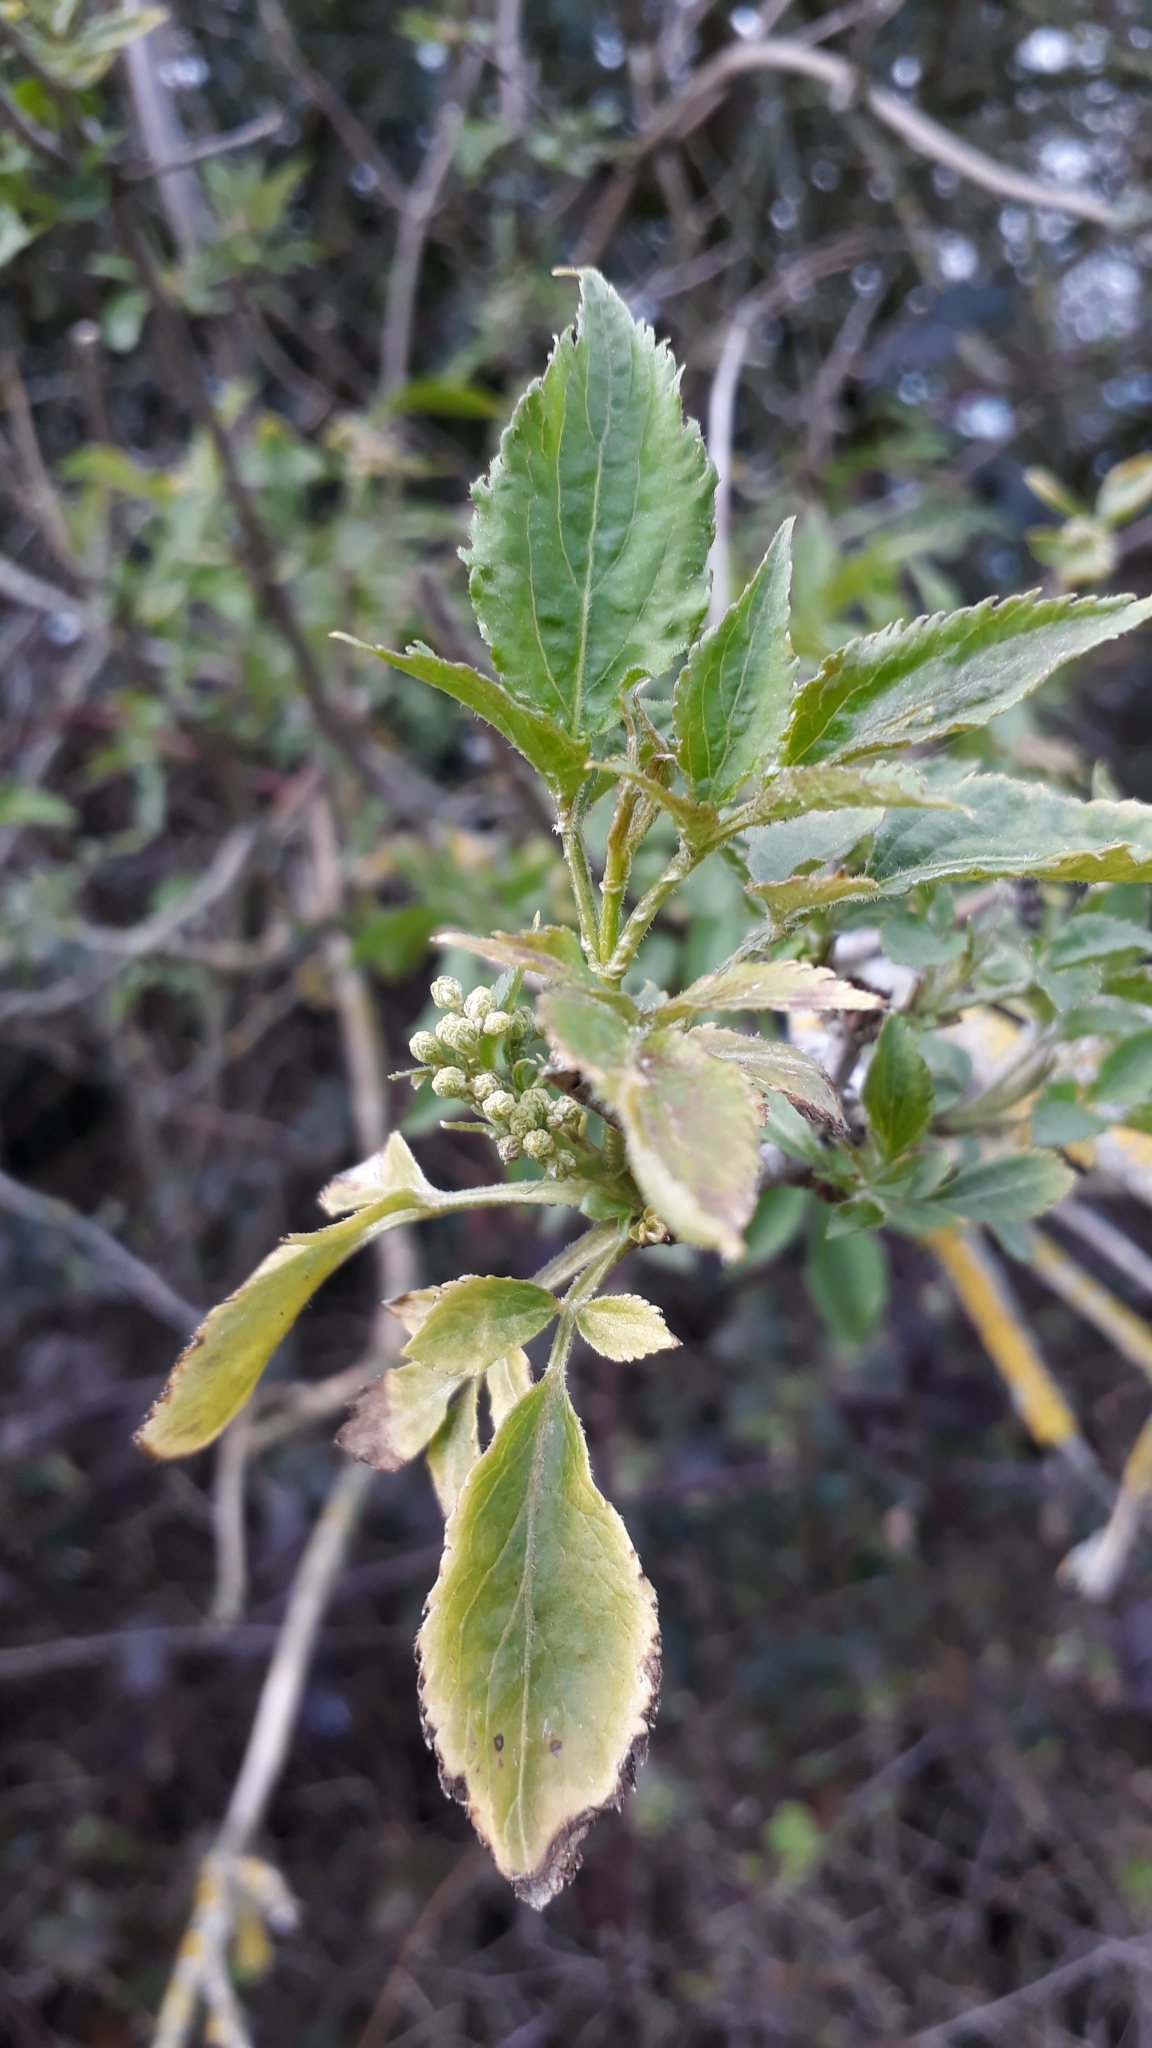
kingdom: Plantae
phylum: Tracheophyta
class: Magnoliopsida
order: Dipsacales
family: Viburnaceae
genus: Sambucus
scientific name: Sambucus nigra
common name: Elder
